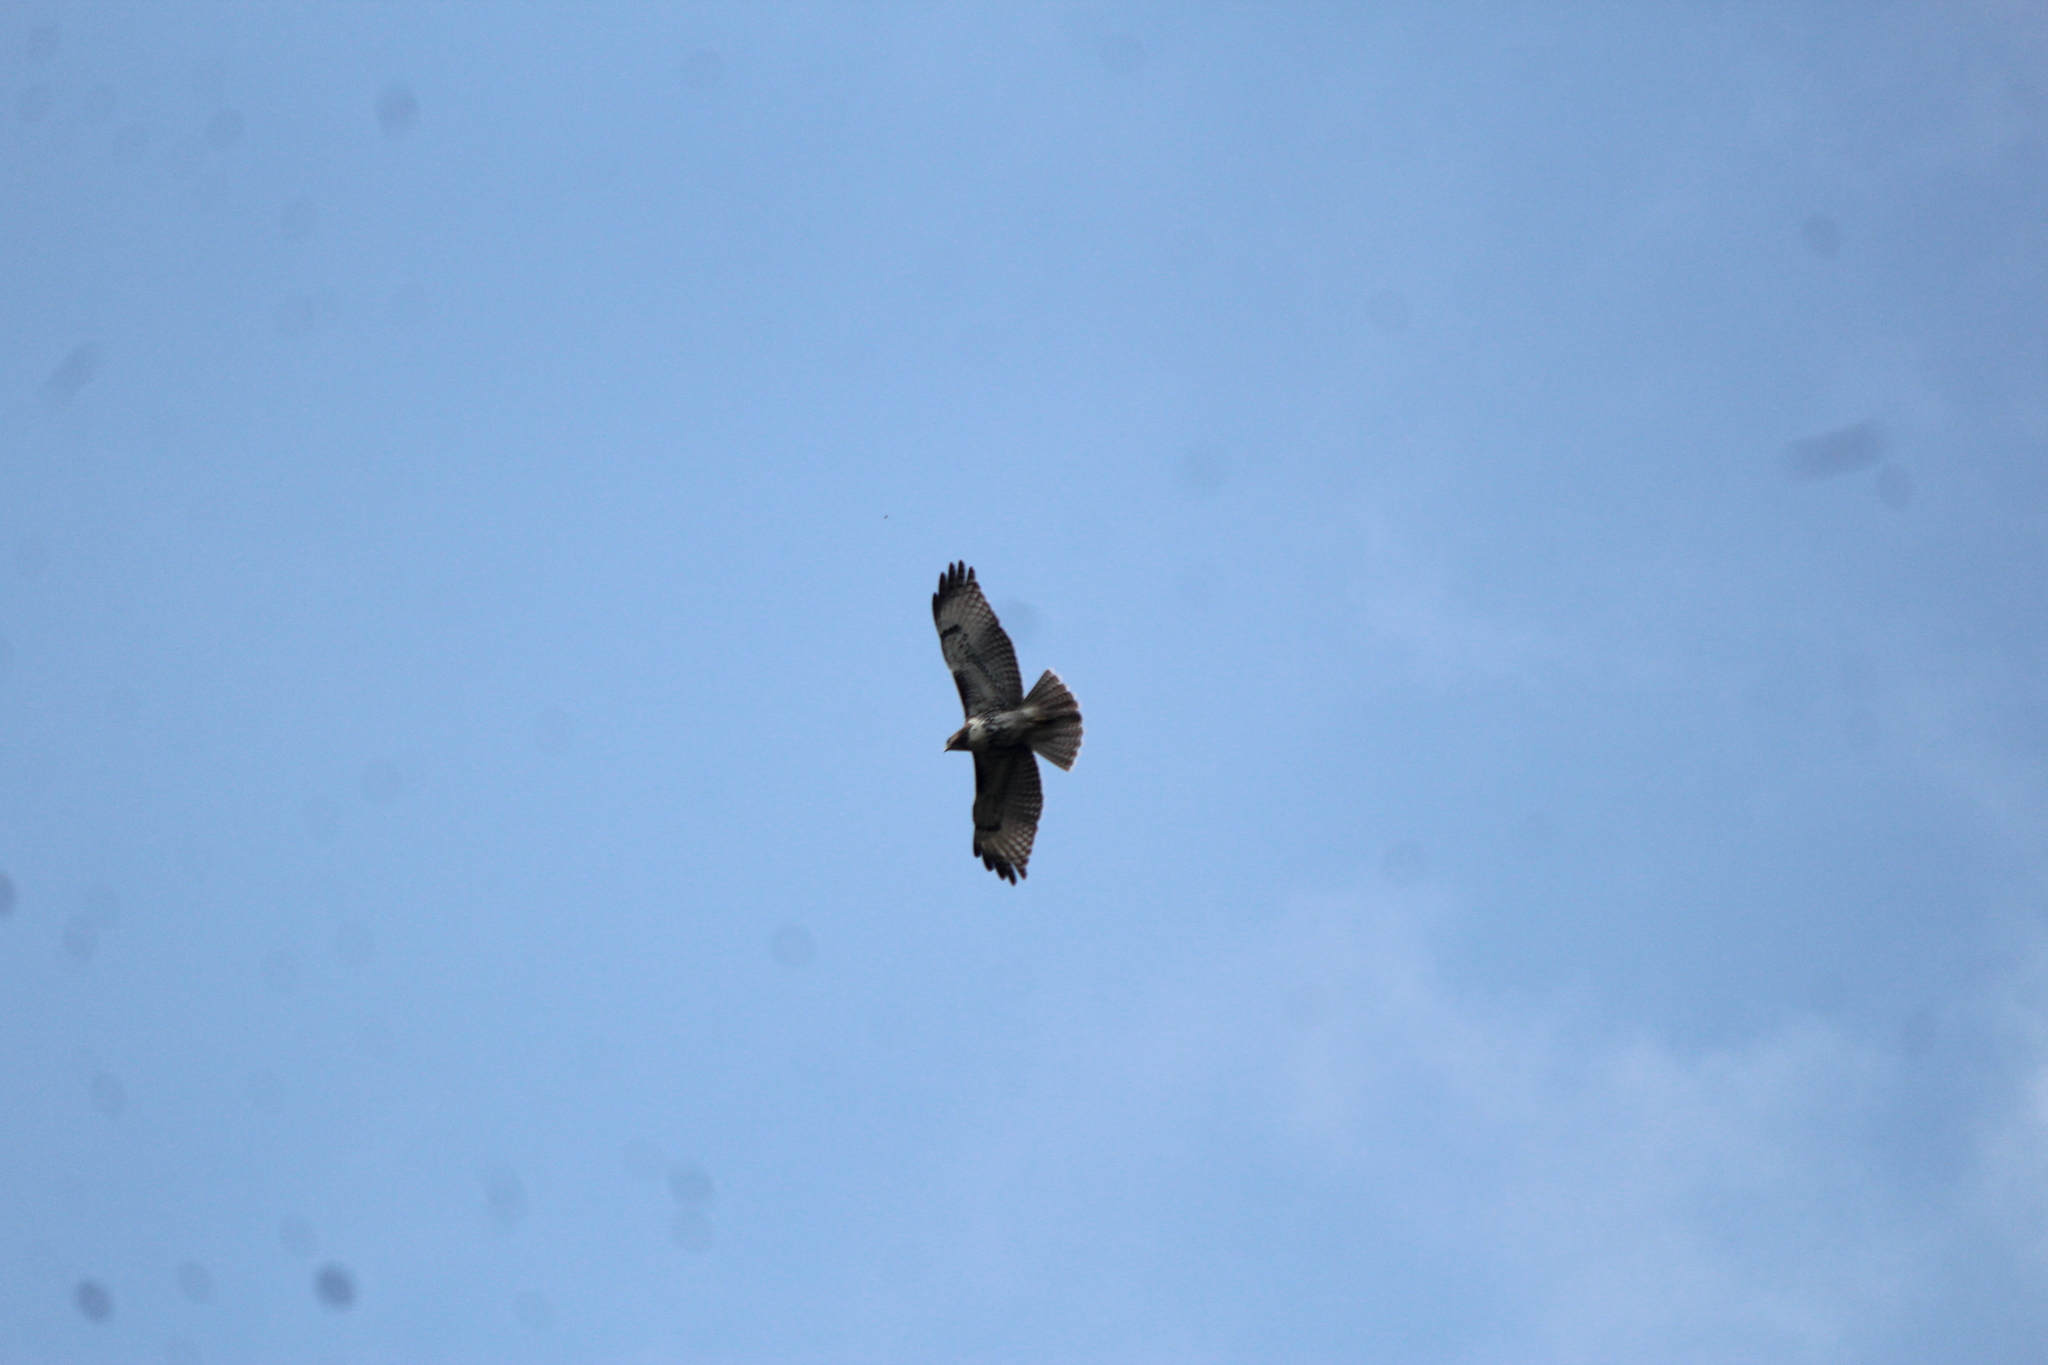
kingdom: Animalia
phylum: Chordata
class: Aves
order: Accipitriformes
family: Accipitridae
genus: Buteo
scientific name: Buteo jamaicensis
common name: Red-tailed hawk
